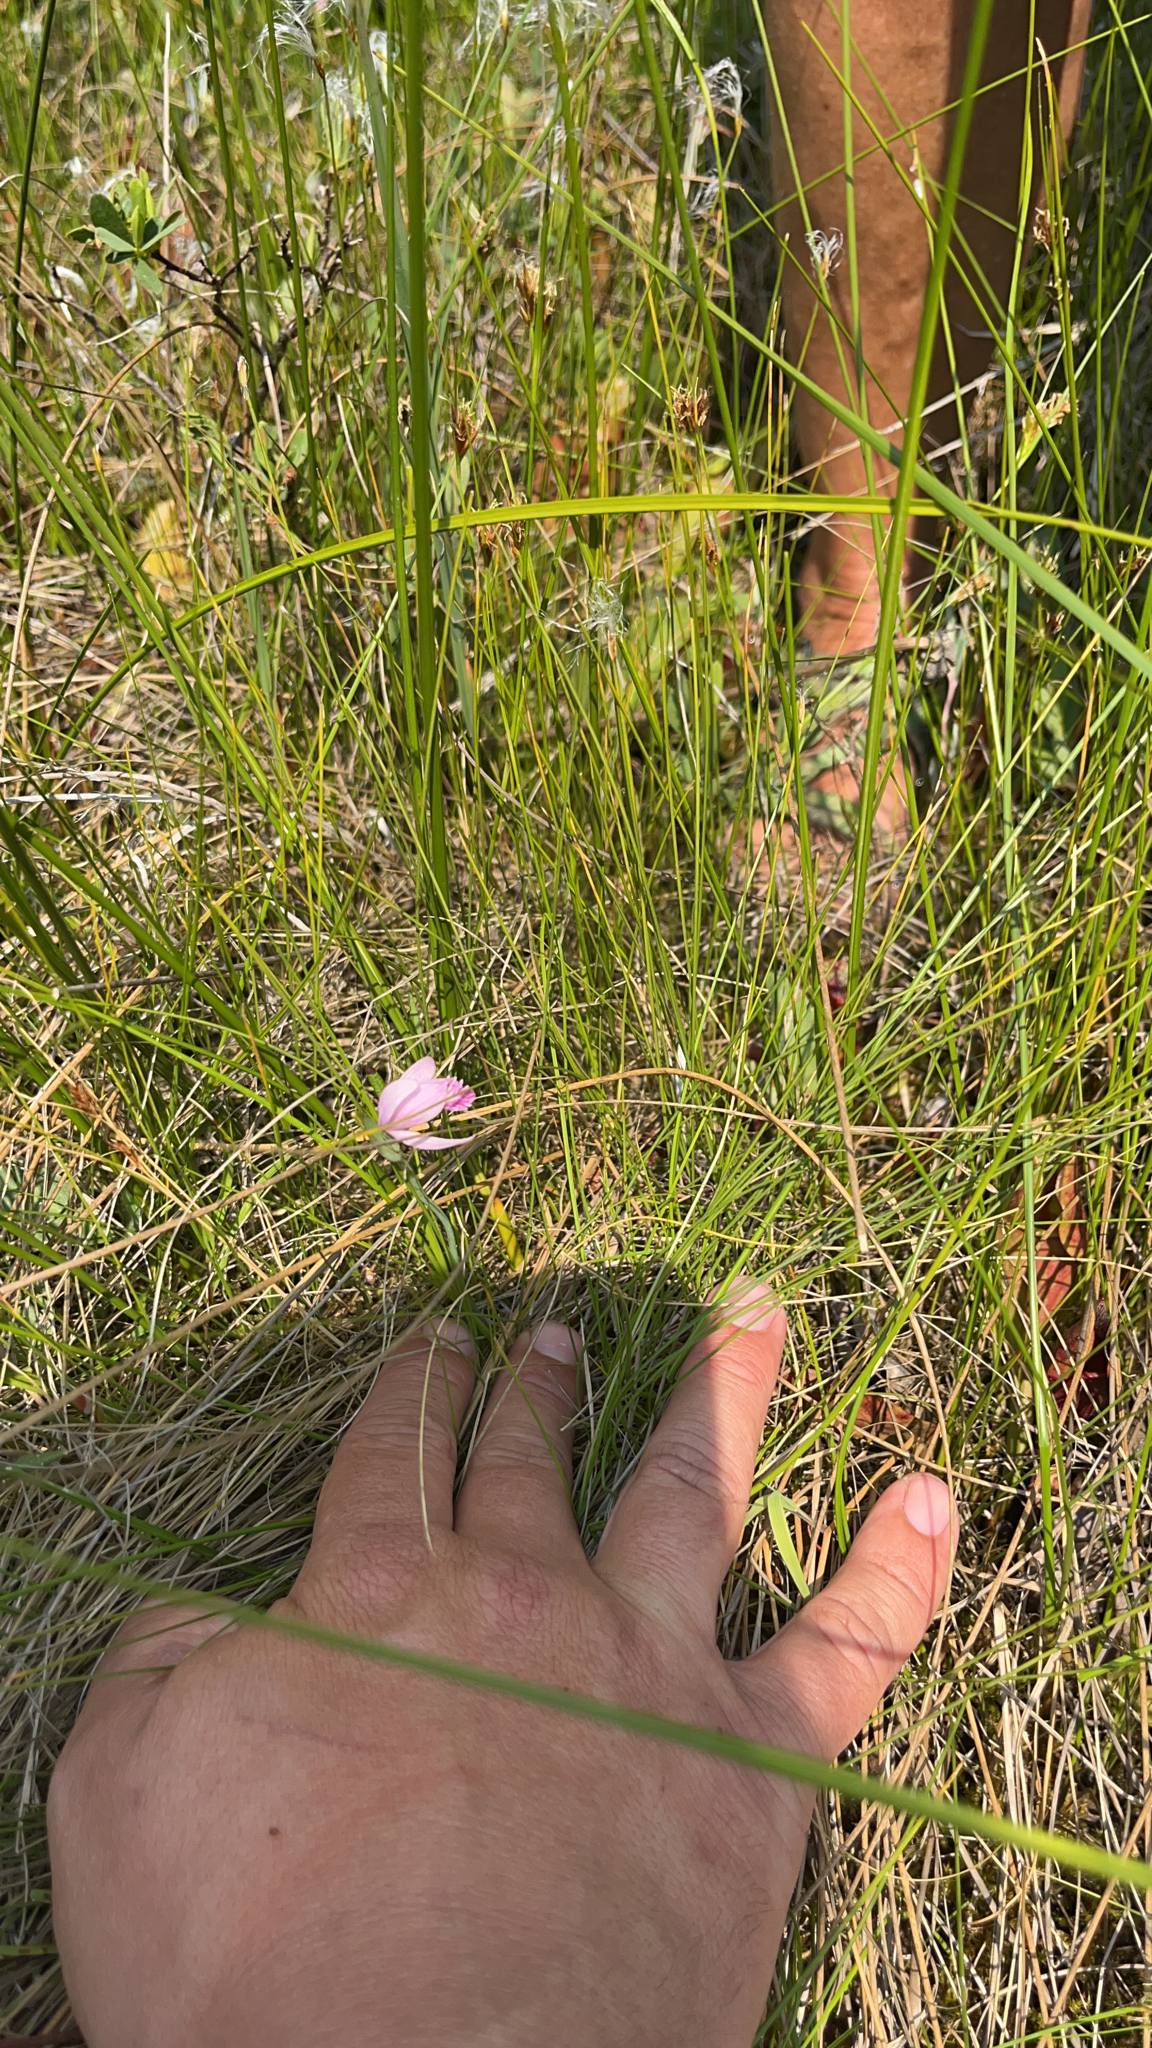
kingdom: Plantae
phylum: Tracheophyta
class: Liliopsida
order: Asparagales
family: Orchidaceae
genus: Pogonia
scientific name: Pogonia ophioglossoides
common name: Rose pogonia
